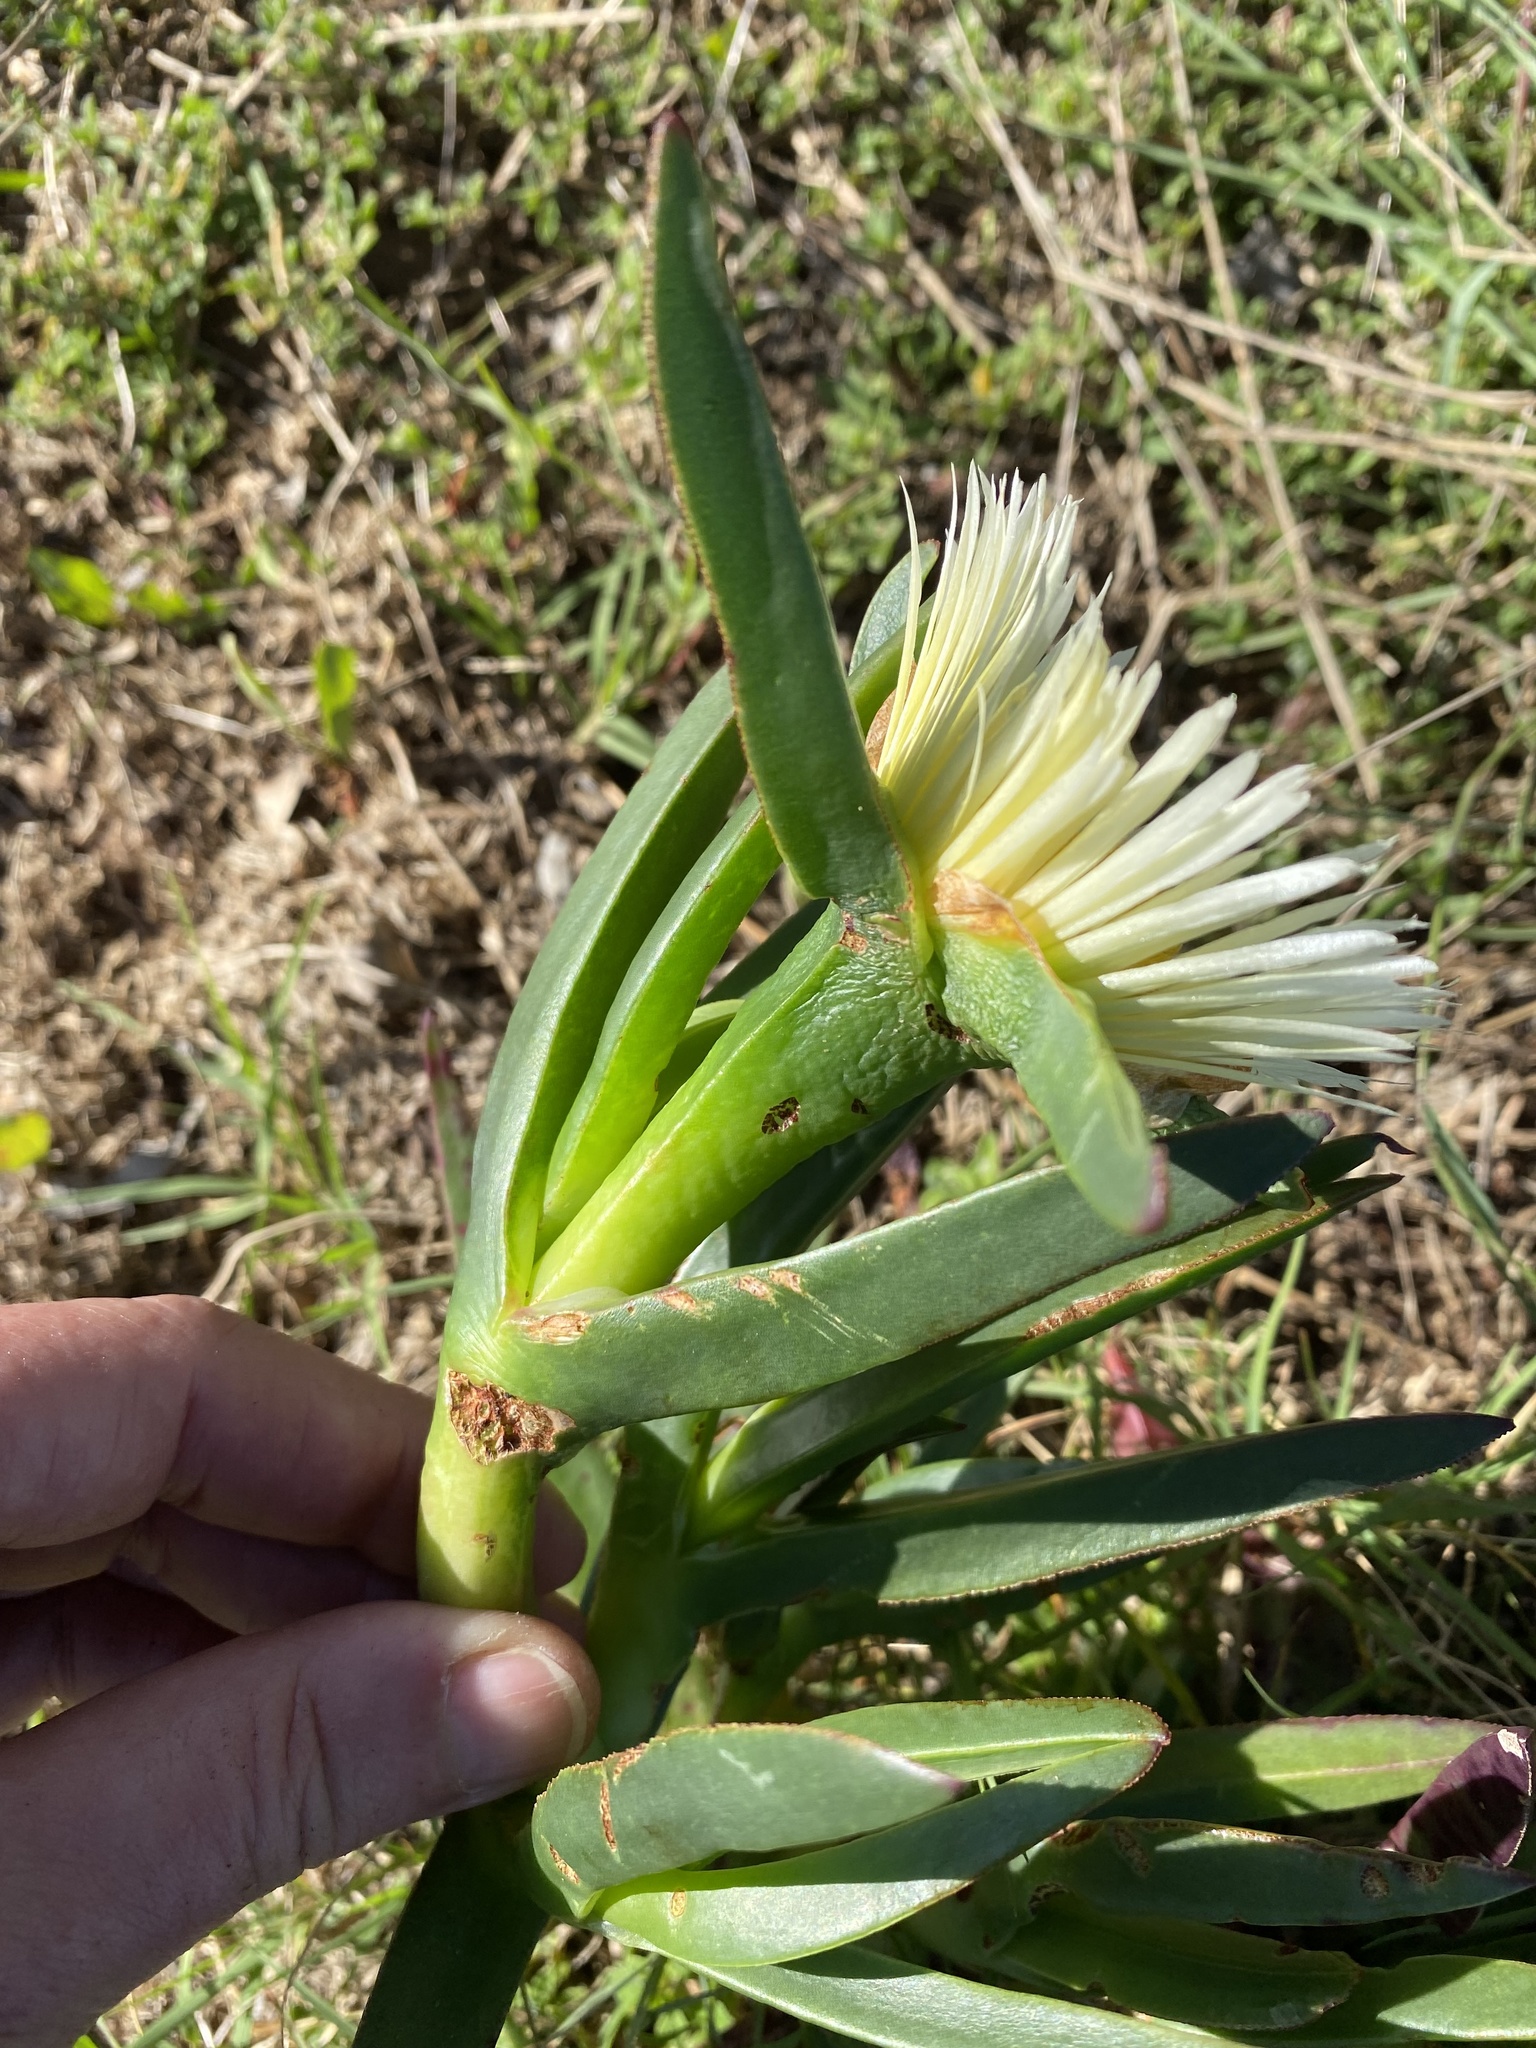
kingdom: Plantae
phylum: Tracheophyta
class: Magnoliopsida
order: Caryophyllales
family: Aizoaceae
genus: Carpobrotus
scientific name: Carpobrotus edulis
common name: Hottentot-fig
